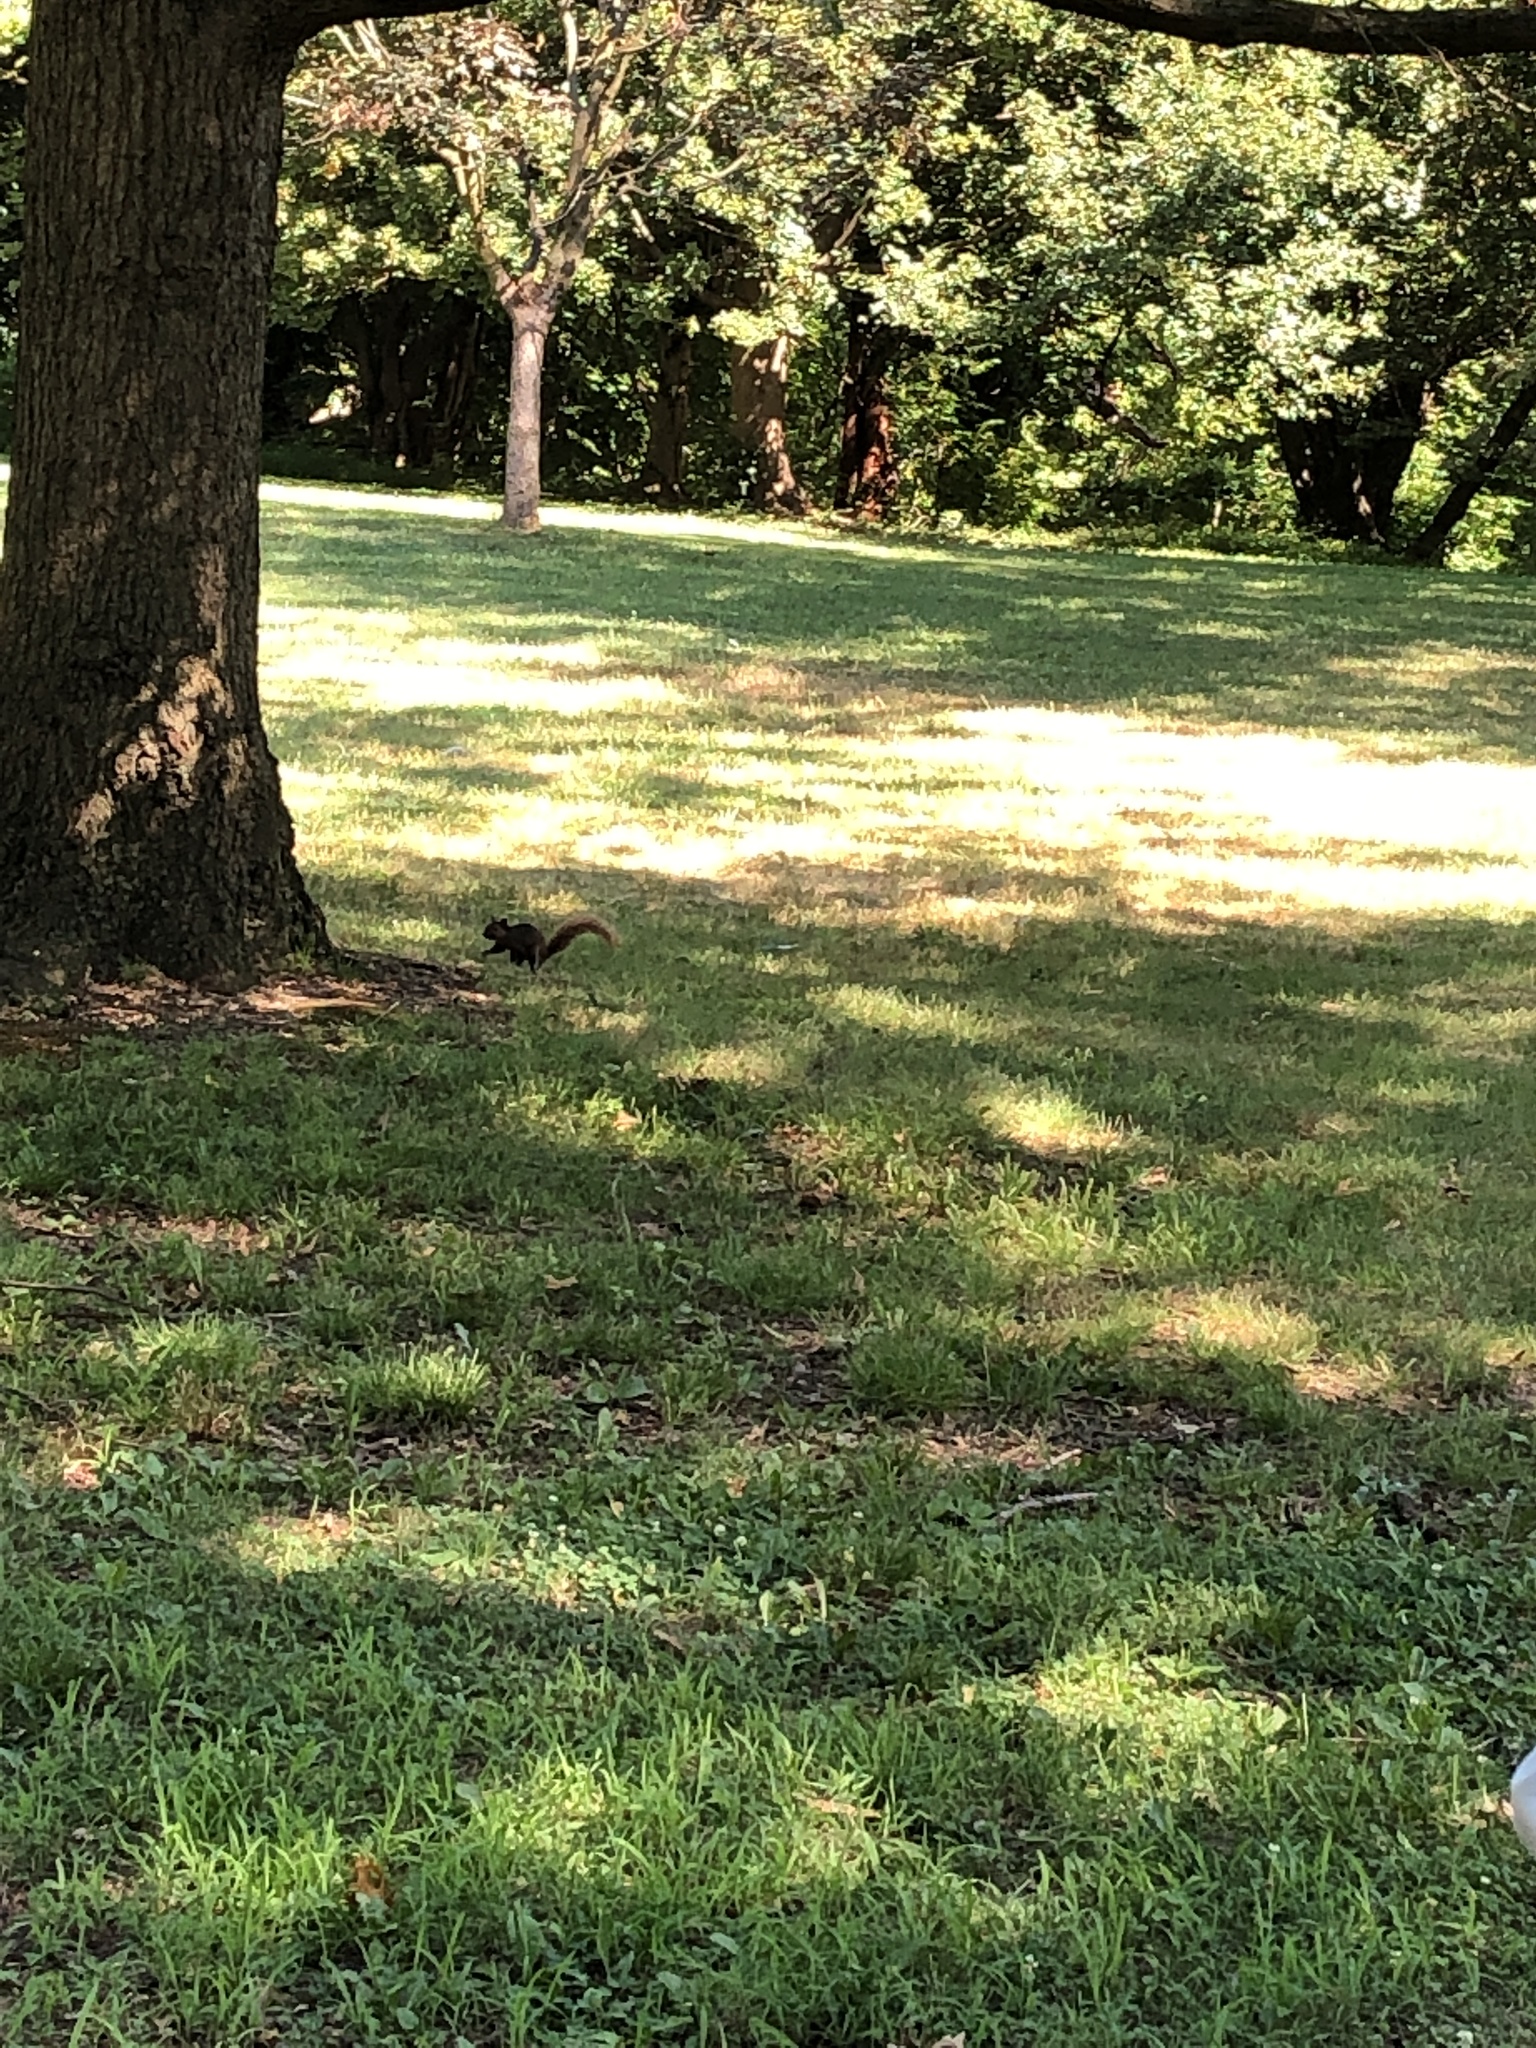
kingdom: Animalia
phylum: Chordata
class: Mammalia
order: Rodentia
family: Sciuridae
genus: Sciurus
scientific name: Sciurus carolinensis
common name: Eastern gray squirrel
